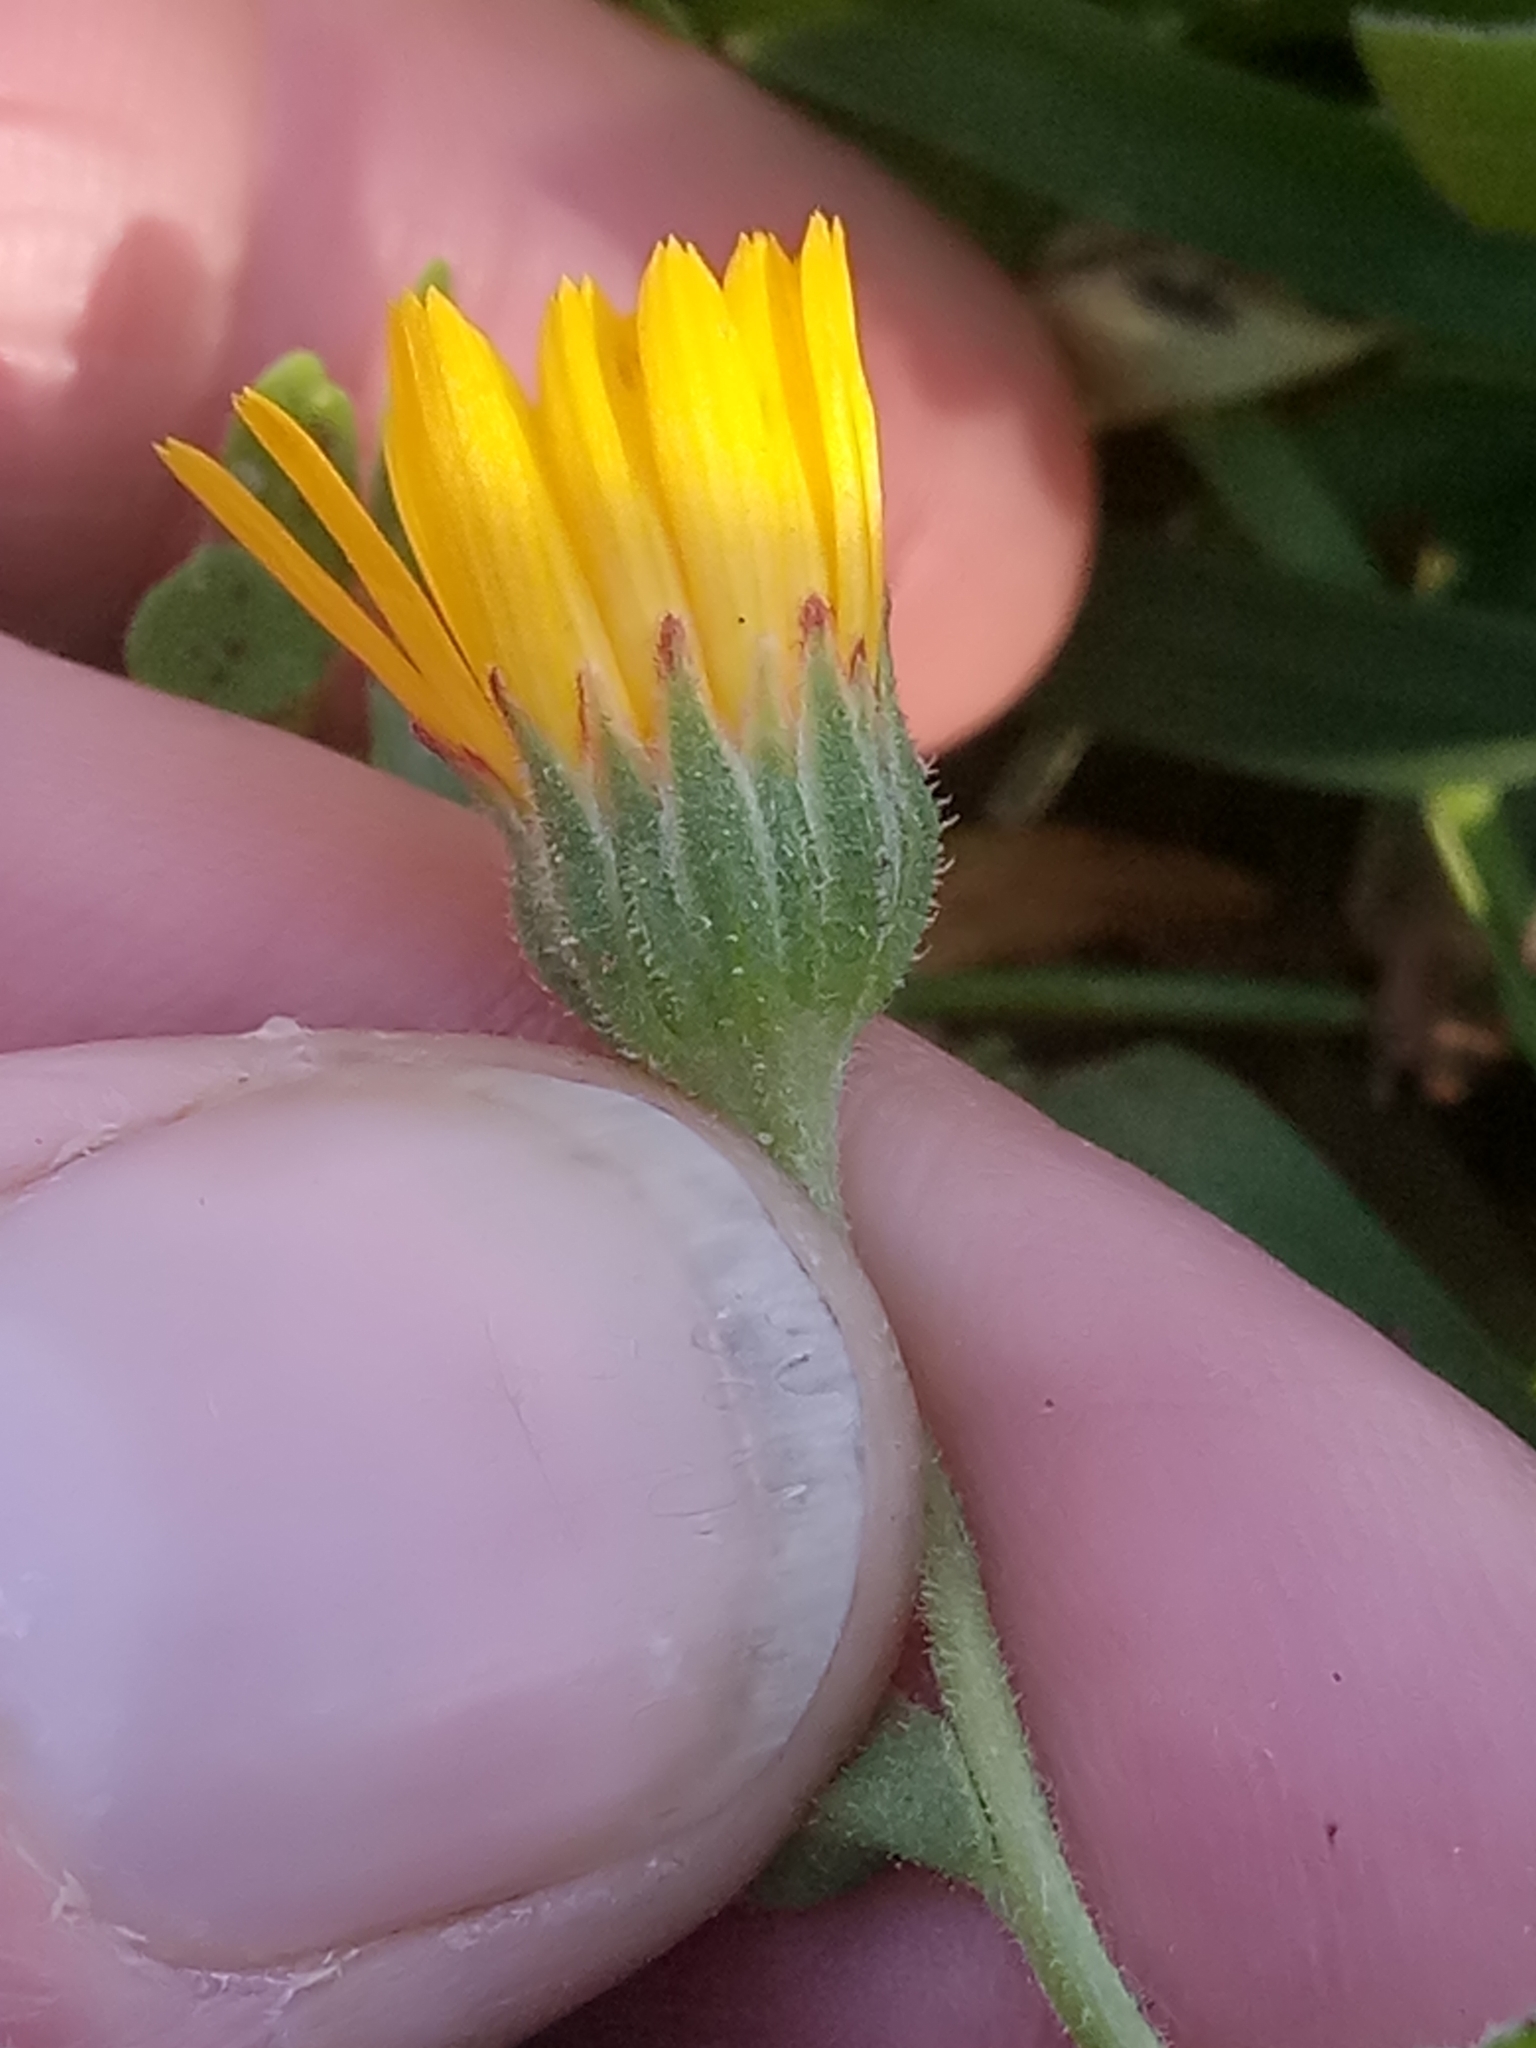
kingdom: Plantae
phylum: Tracheophyta
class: Magnoliopsida
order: Asterales
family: Asteraceae
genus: Calendula
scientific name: Calendula arvensis
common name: Field marigold
